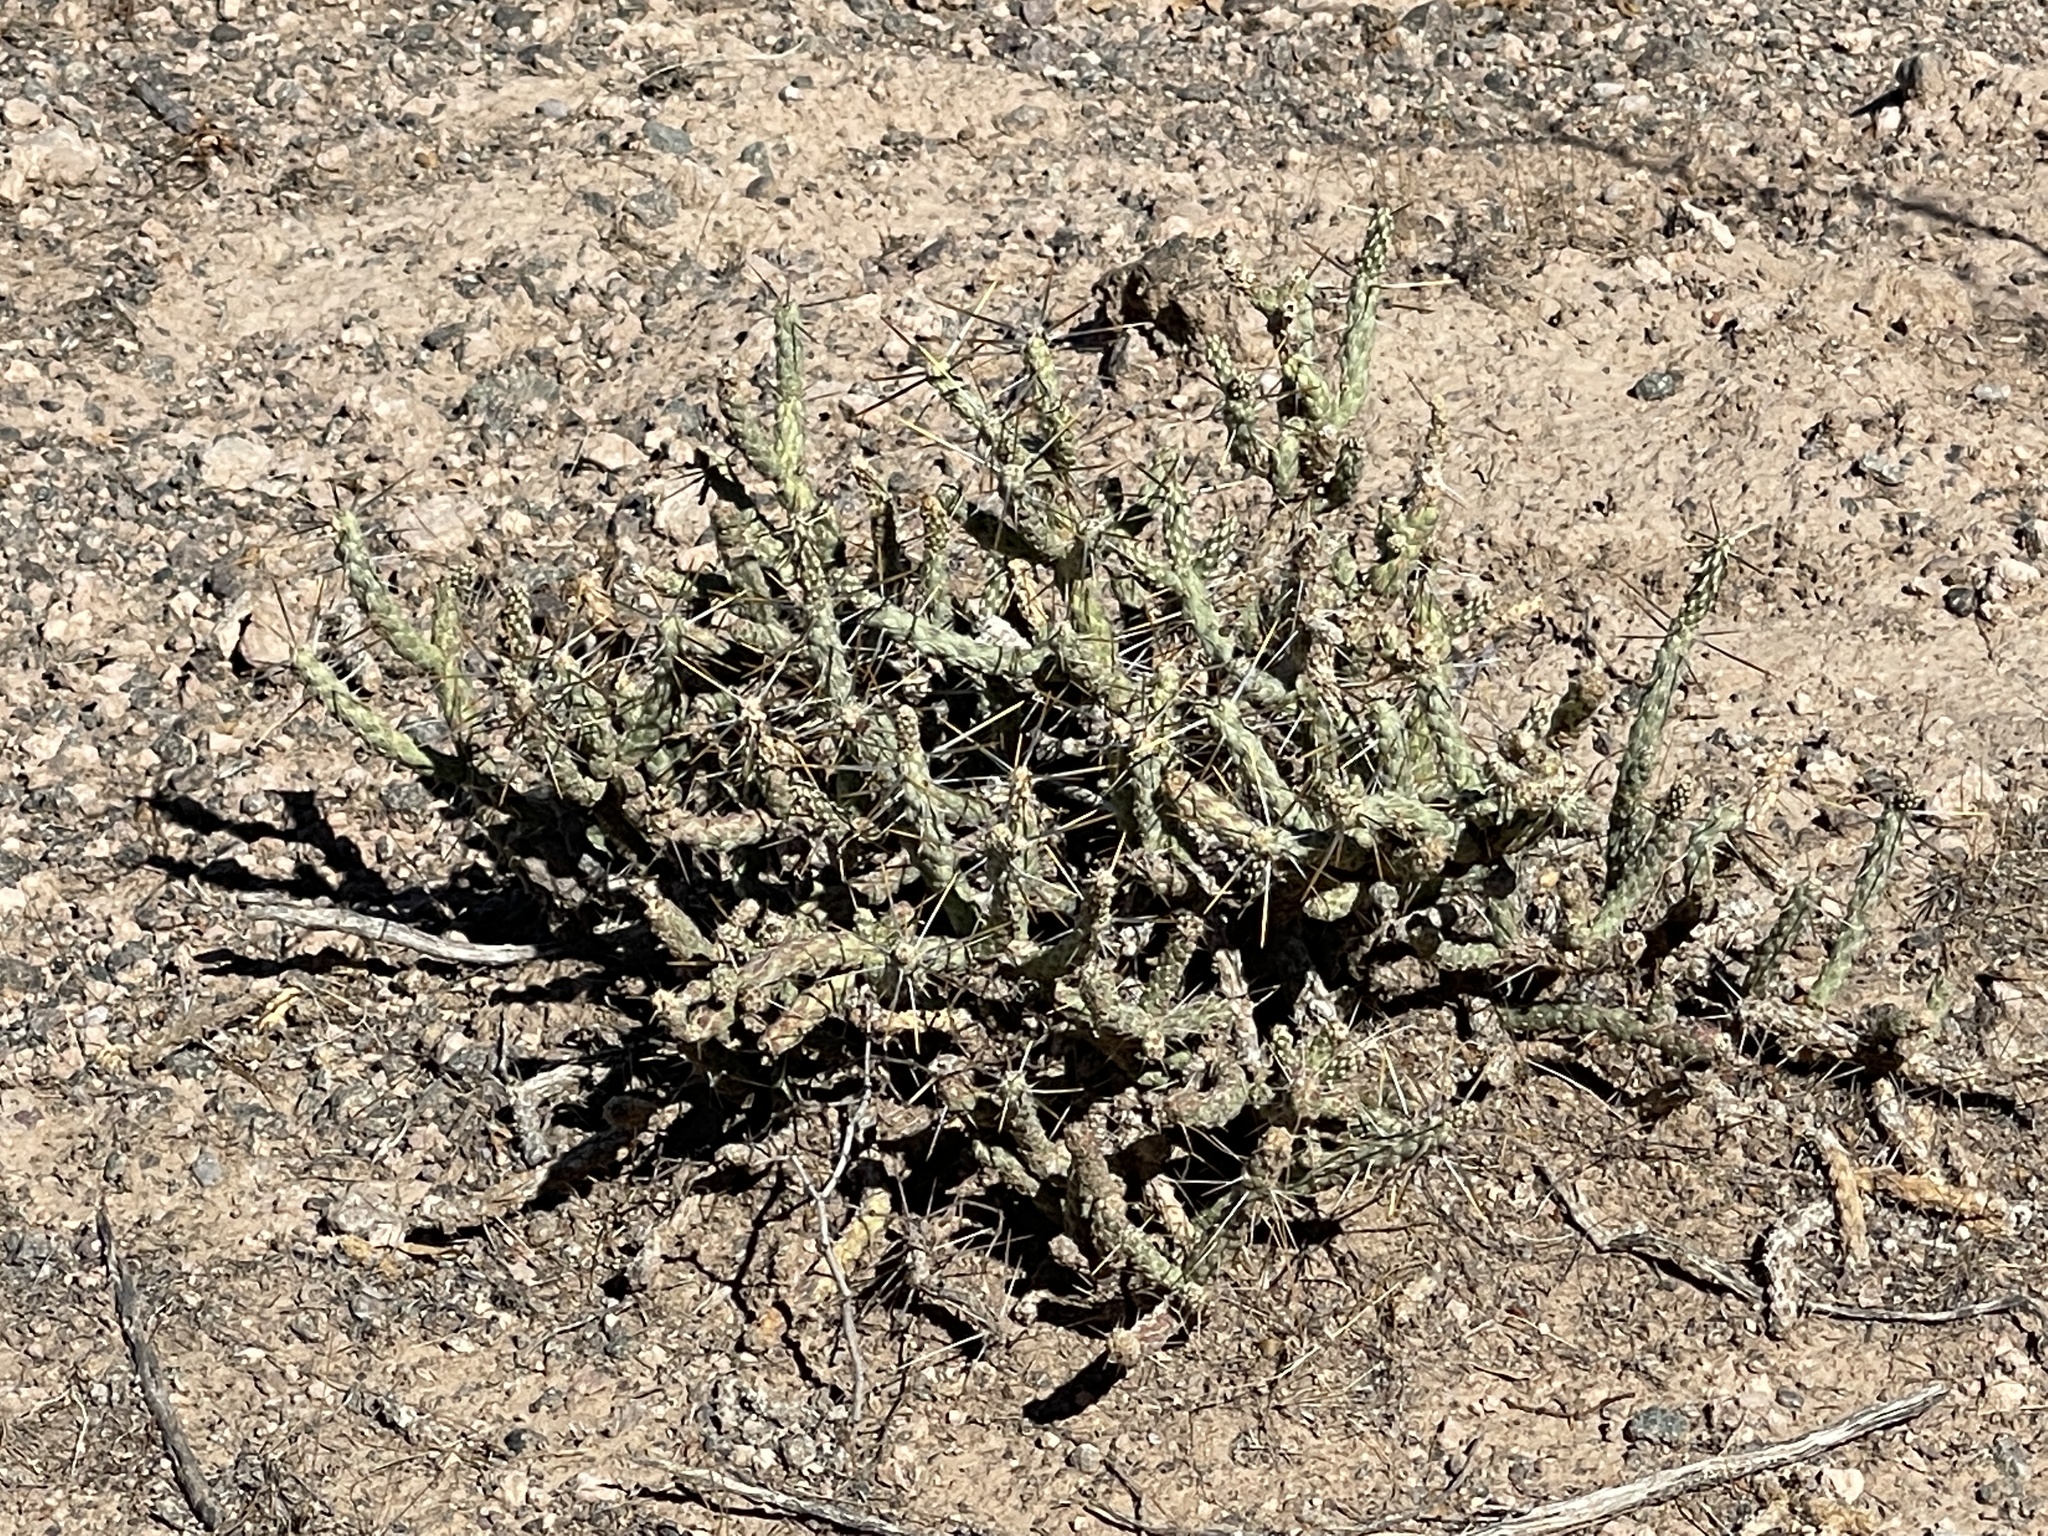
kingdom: Plantae
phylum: Tracheophyta
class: Magnoliopsida
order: Caryophyllales
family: Cactaceae
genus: Cylindropuntia
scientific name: Cylindropuntia ramosissima
